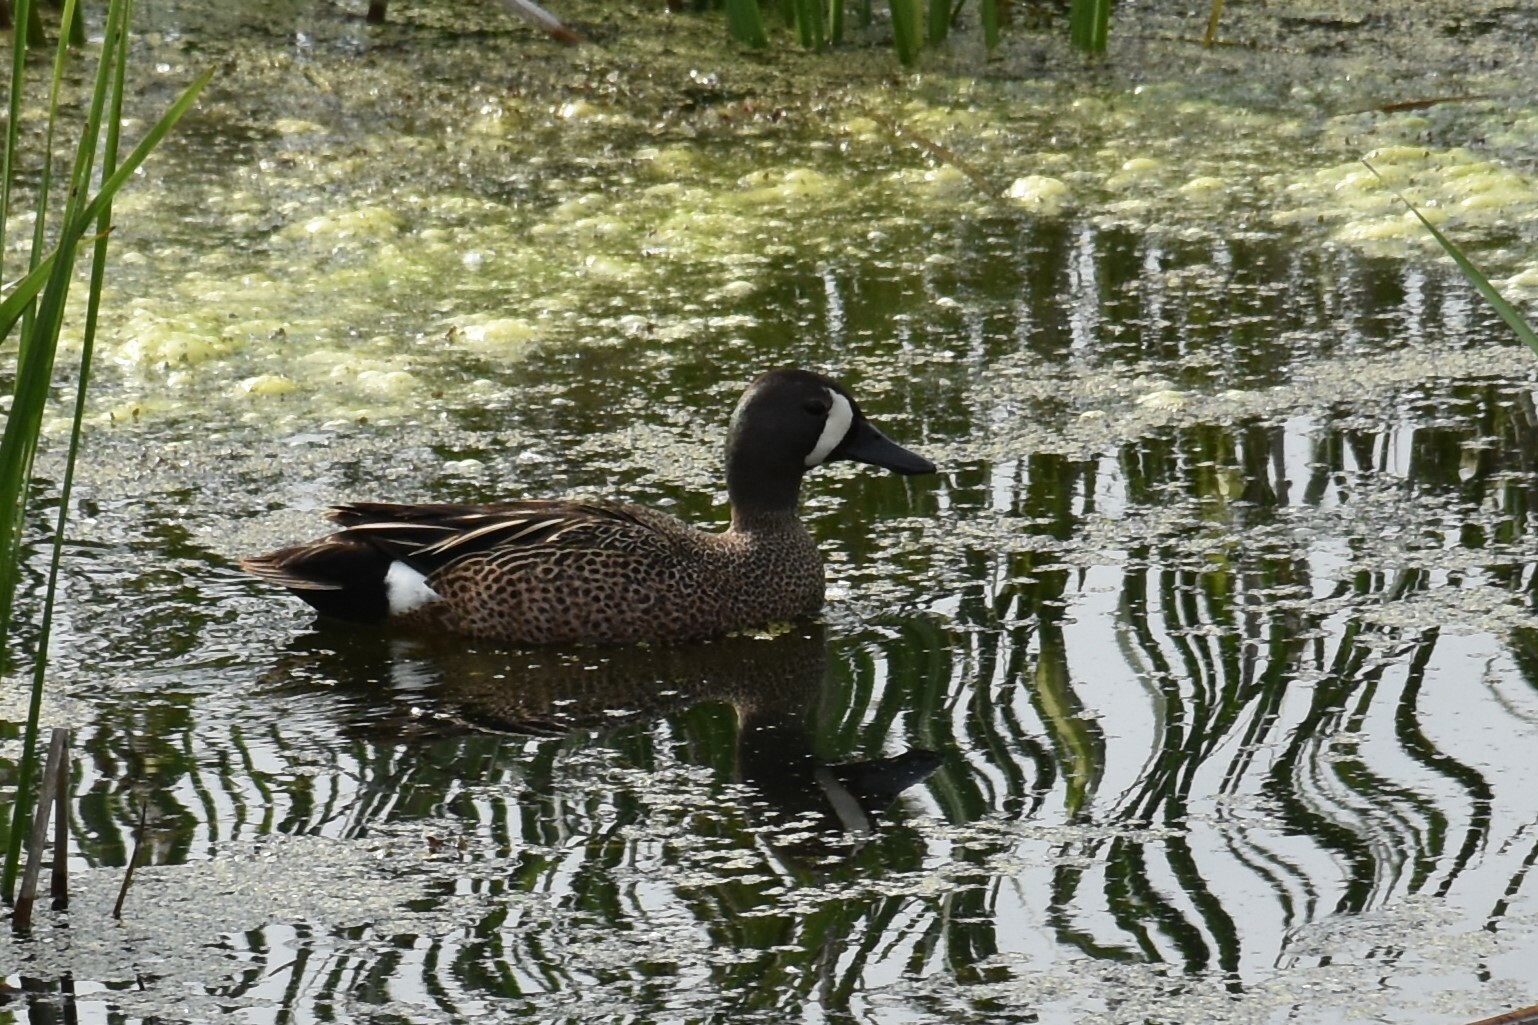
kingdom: Animalia
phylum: Chordata
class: Aves
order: Anseriformes
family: Anatidae
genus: Spatula
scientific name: Spatula discors
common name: Blue-winged teal
